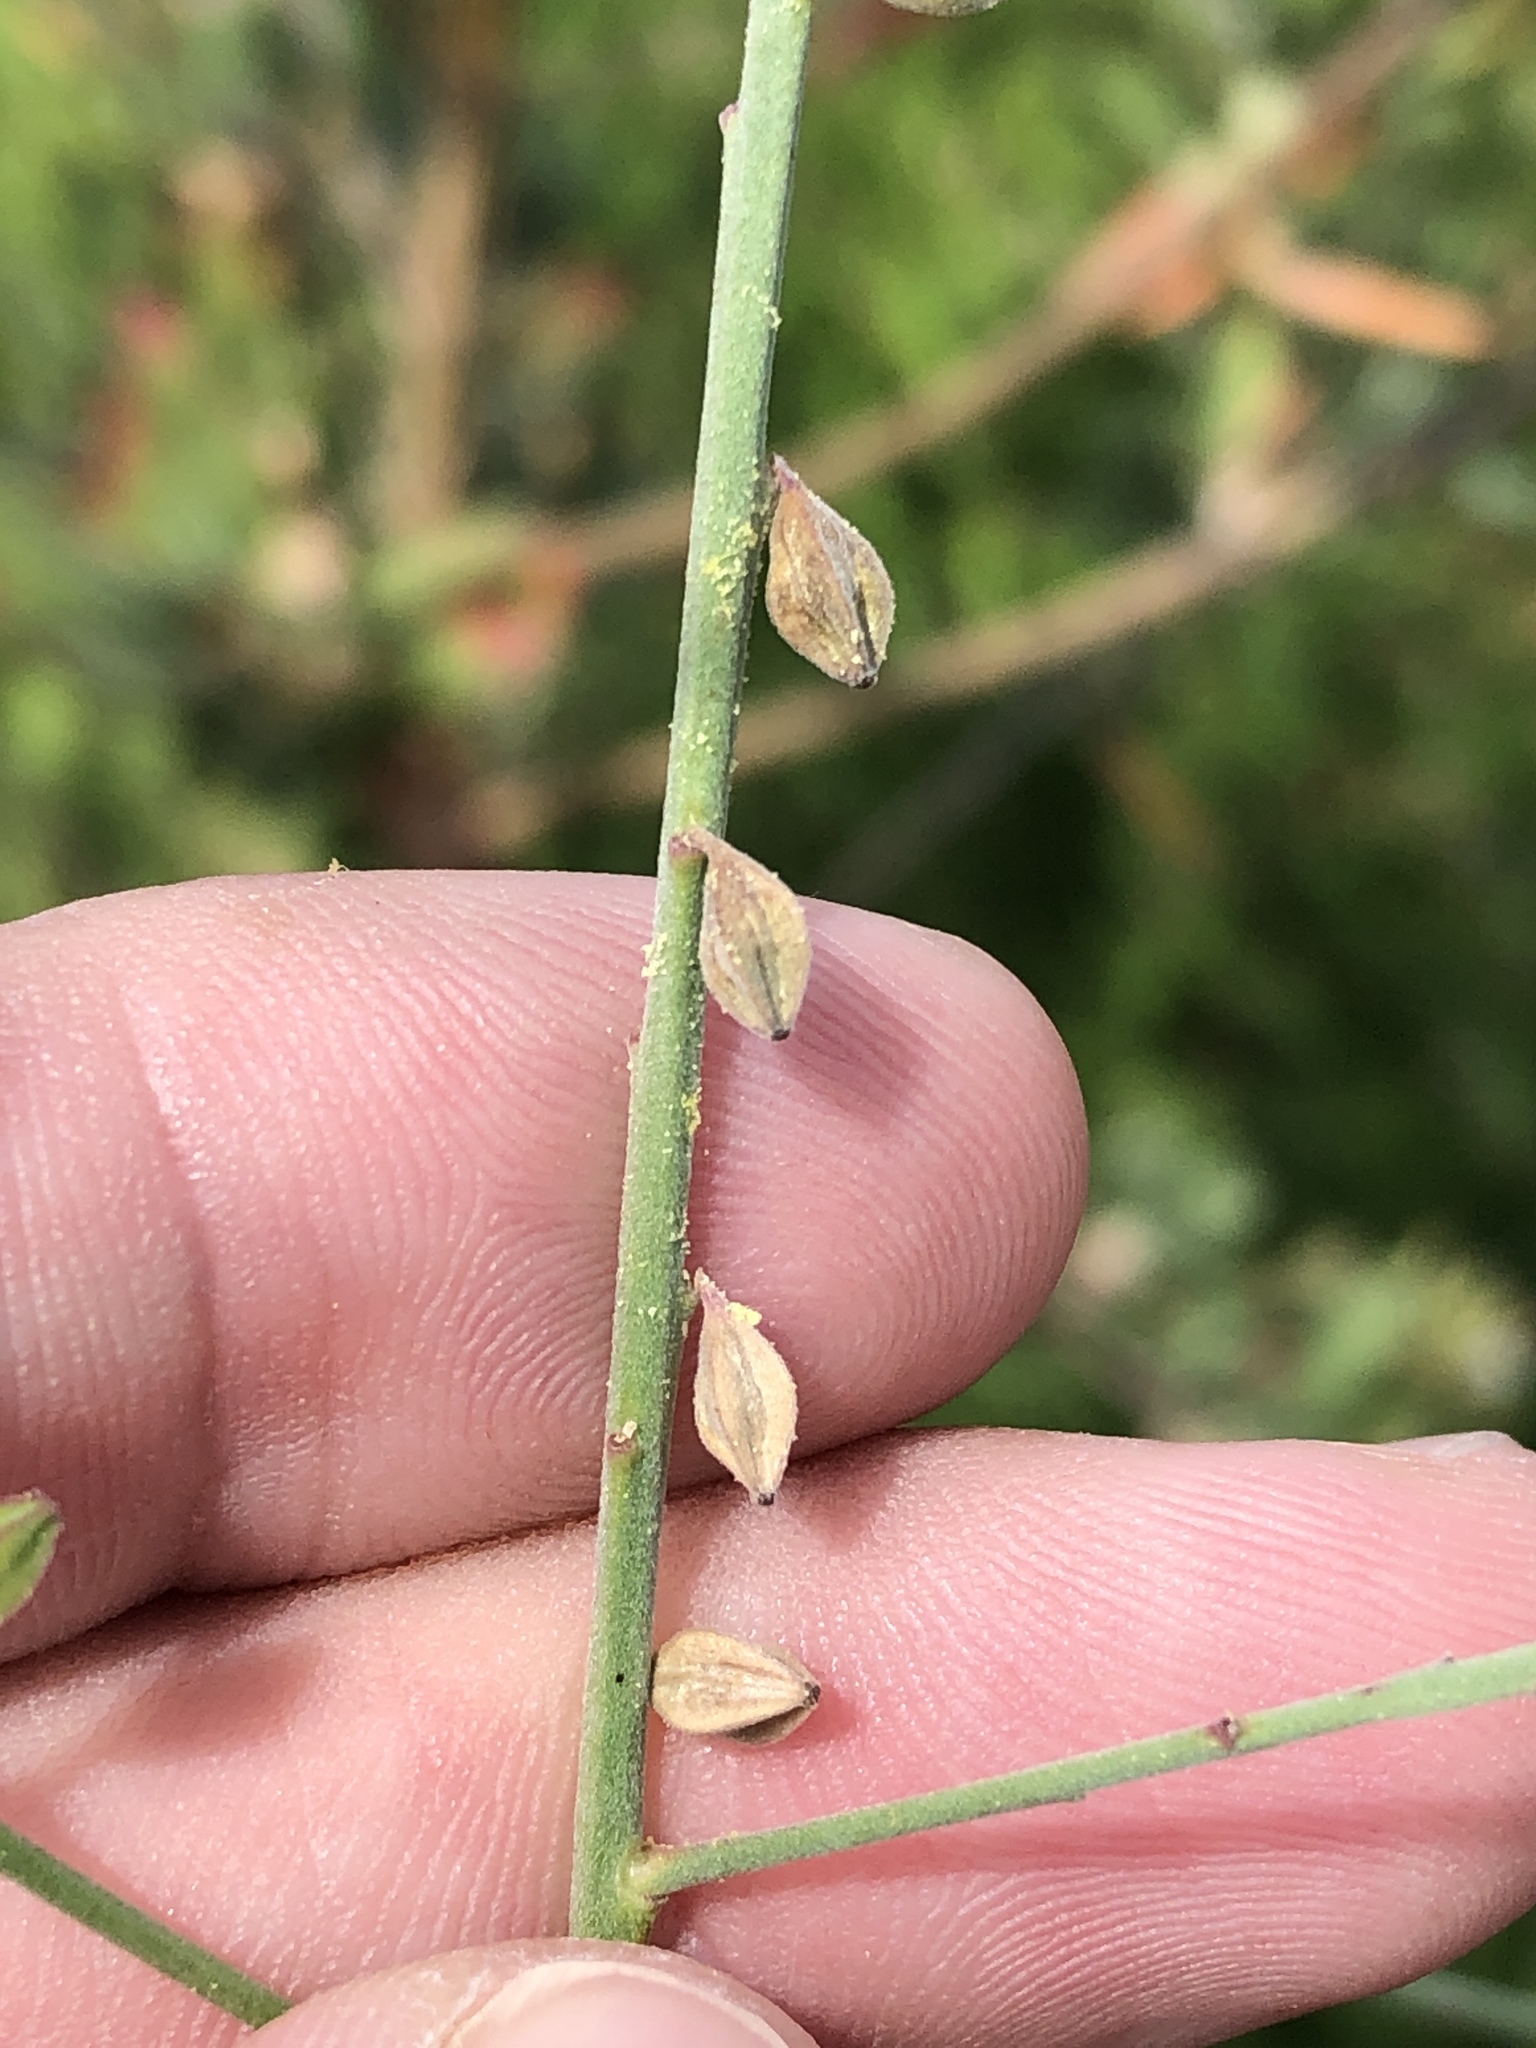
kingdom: Plantae
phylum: Tracheophyta
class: Magnoliopsida
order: Myrtales
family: Onagraceae
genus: Oenothera
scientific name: Oenothera filiformis
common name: Longflower beeblossom
